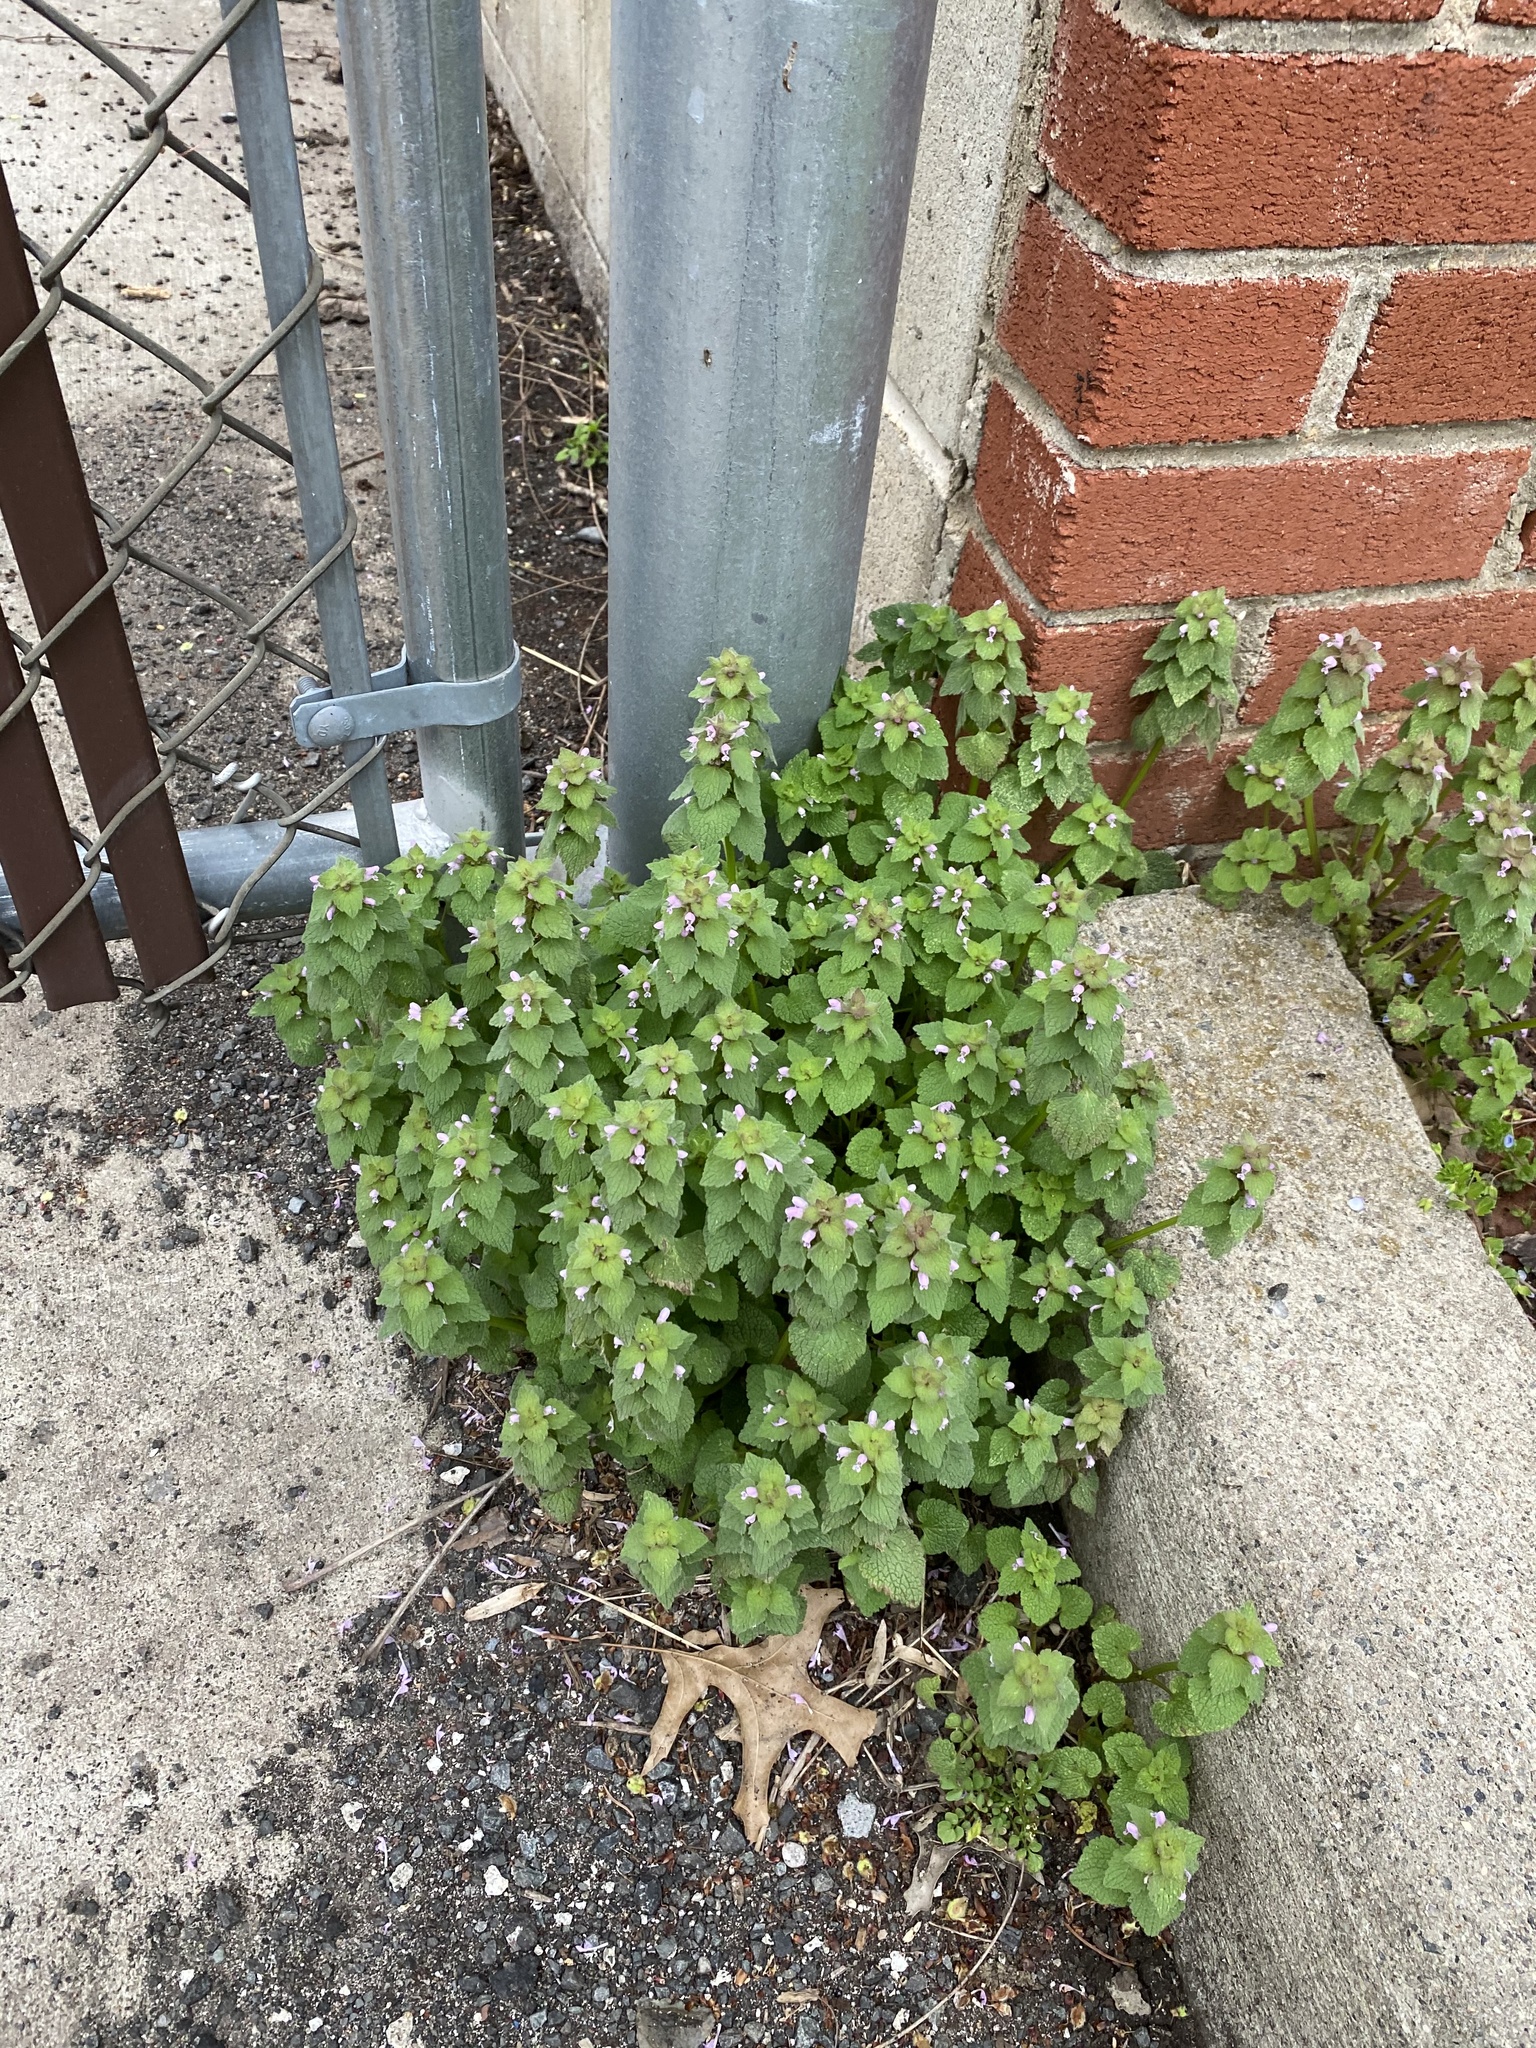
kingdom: Plantae
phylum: Tracheophyta
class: Magnoliopsida
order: Lamiales
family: Lamiaceae
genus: Lamium
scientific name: Lamium purpureum
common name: Red dead-nettle
